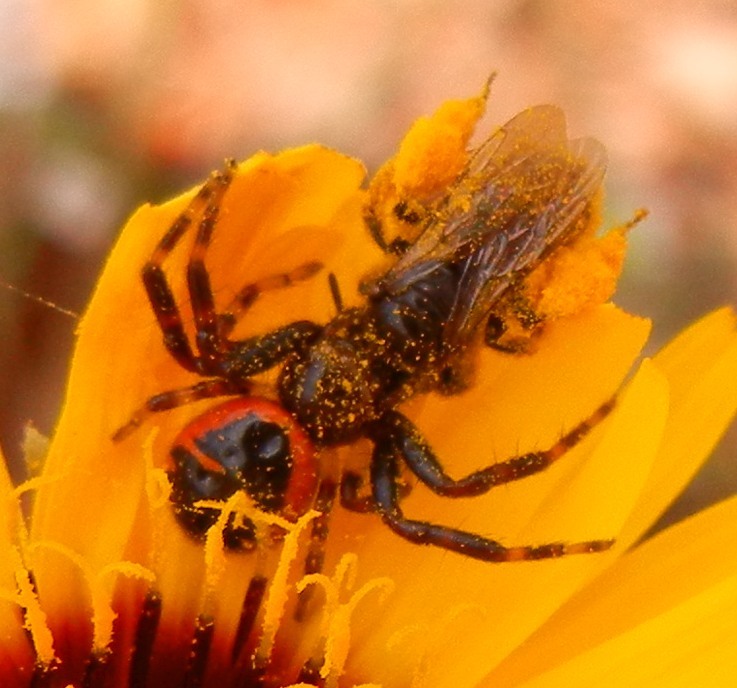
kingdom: Animalia
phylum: Arthropoda
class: Arachnida
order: Araneae
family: Thomisidae
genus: Synema
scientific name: Synema globosum
